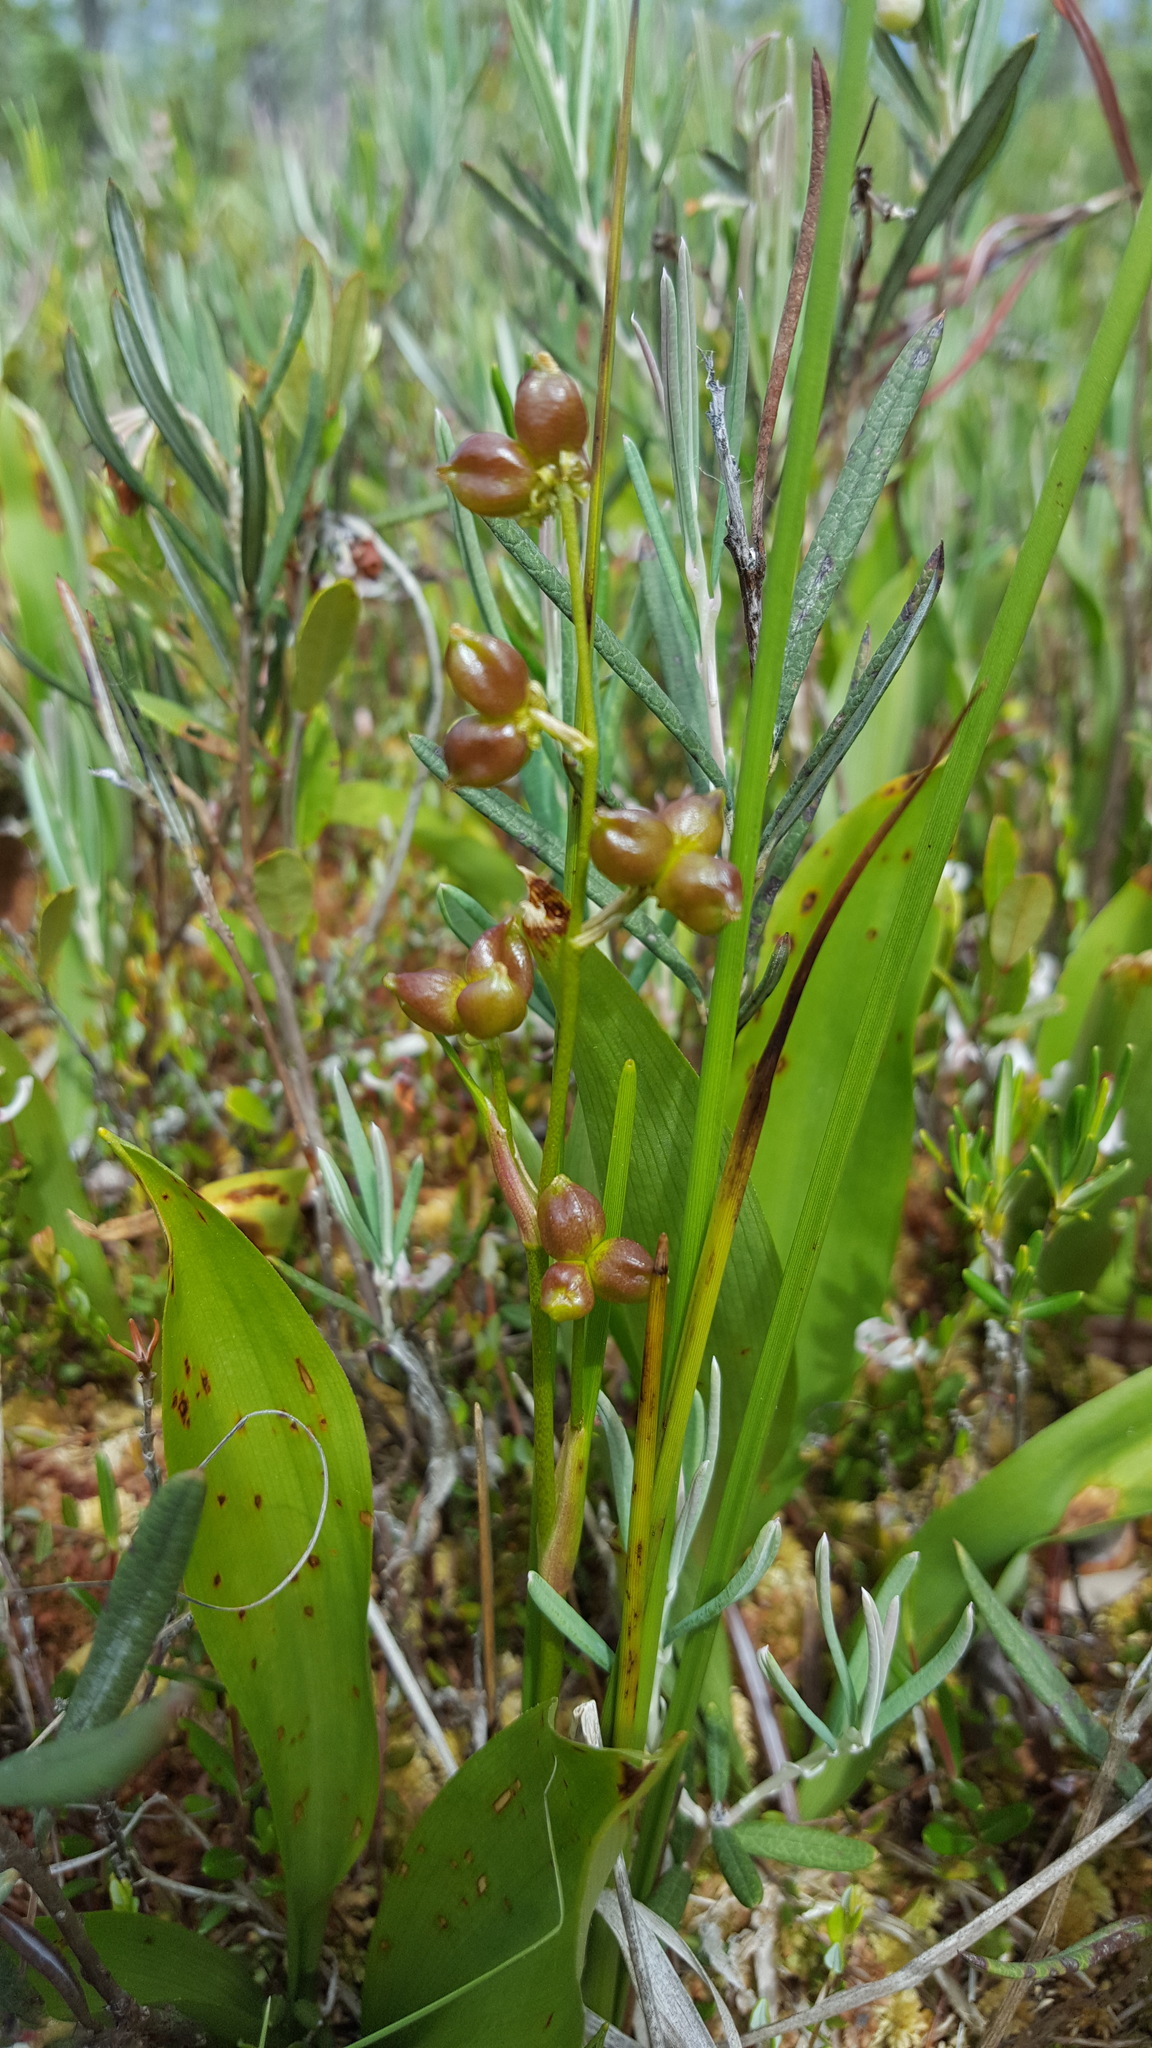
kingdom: Plantae
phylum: Tracheophyta
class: Liliopsida
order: Alismatales
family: Scheuchzeriaceae
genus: Scheuchzeria
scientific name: Scheuchzeria palustris
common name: Rannoch-rush
